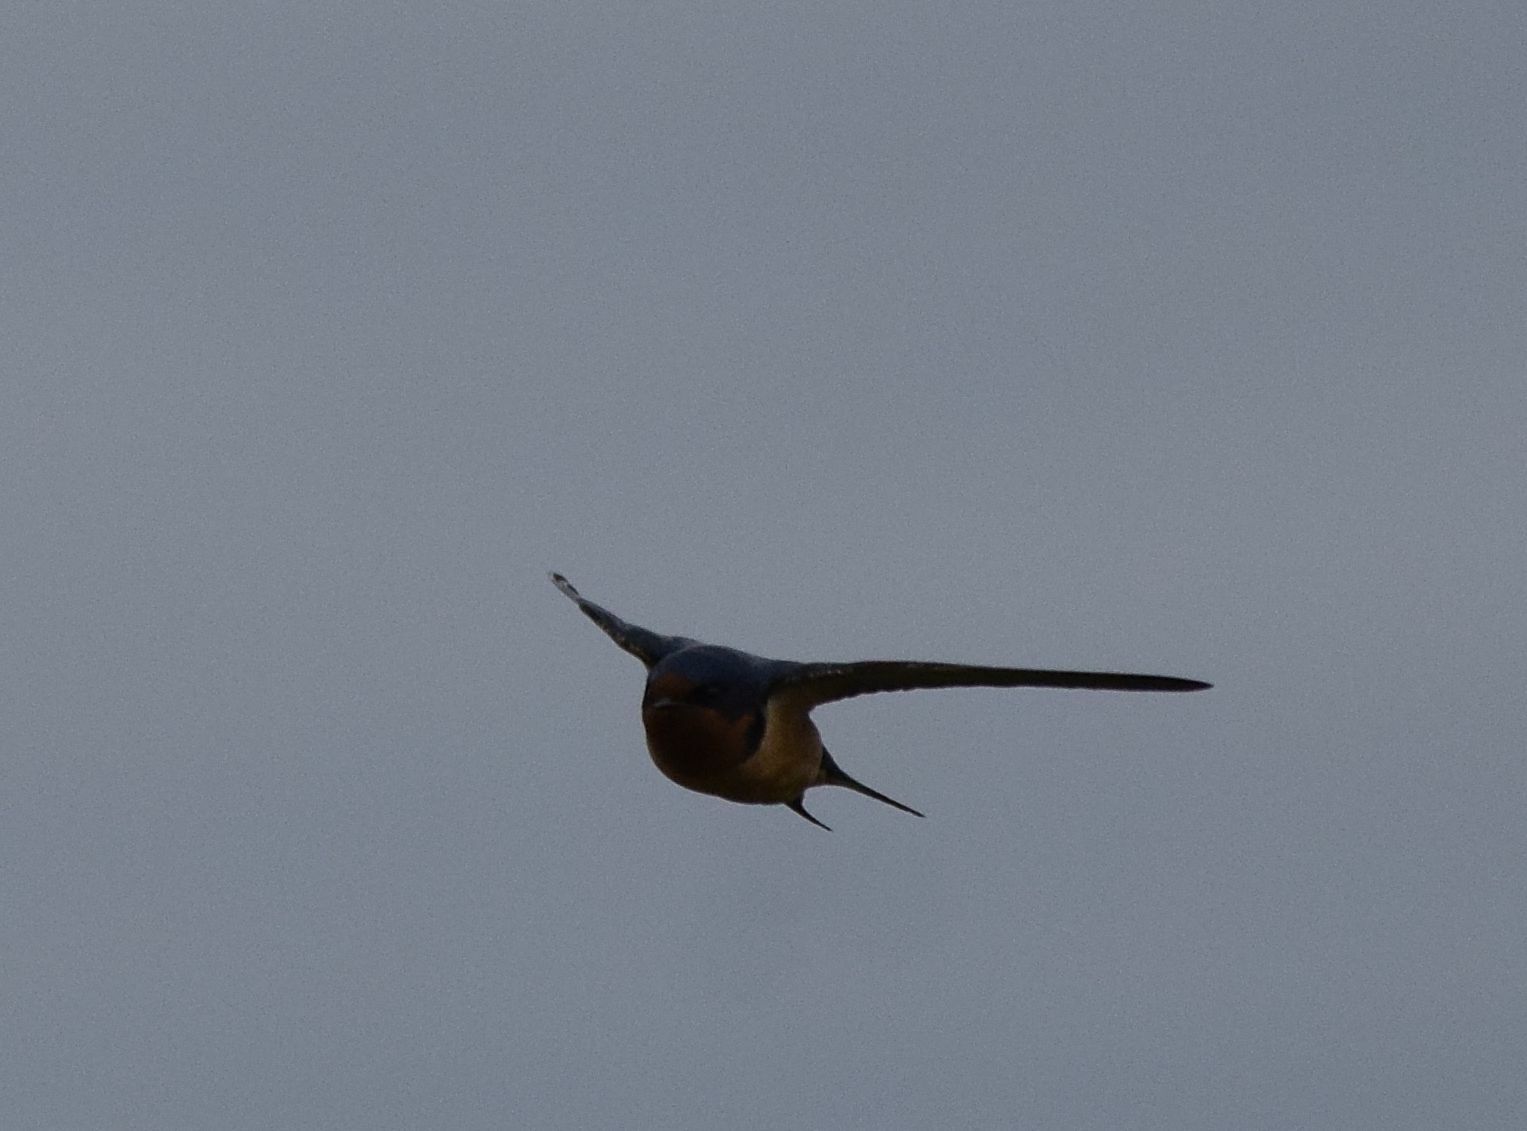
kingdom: Animalia
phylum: Chordata
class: Aves
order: Passeriformes
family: Hirundinidae
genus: Hirundo
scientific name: Hirundo rustica
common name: Barn swallow
